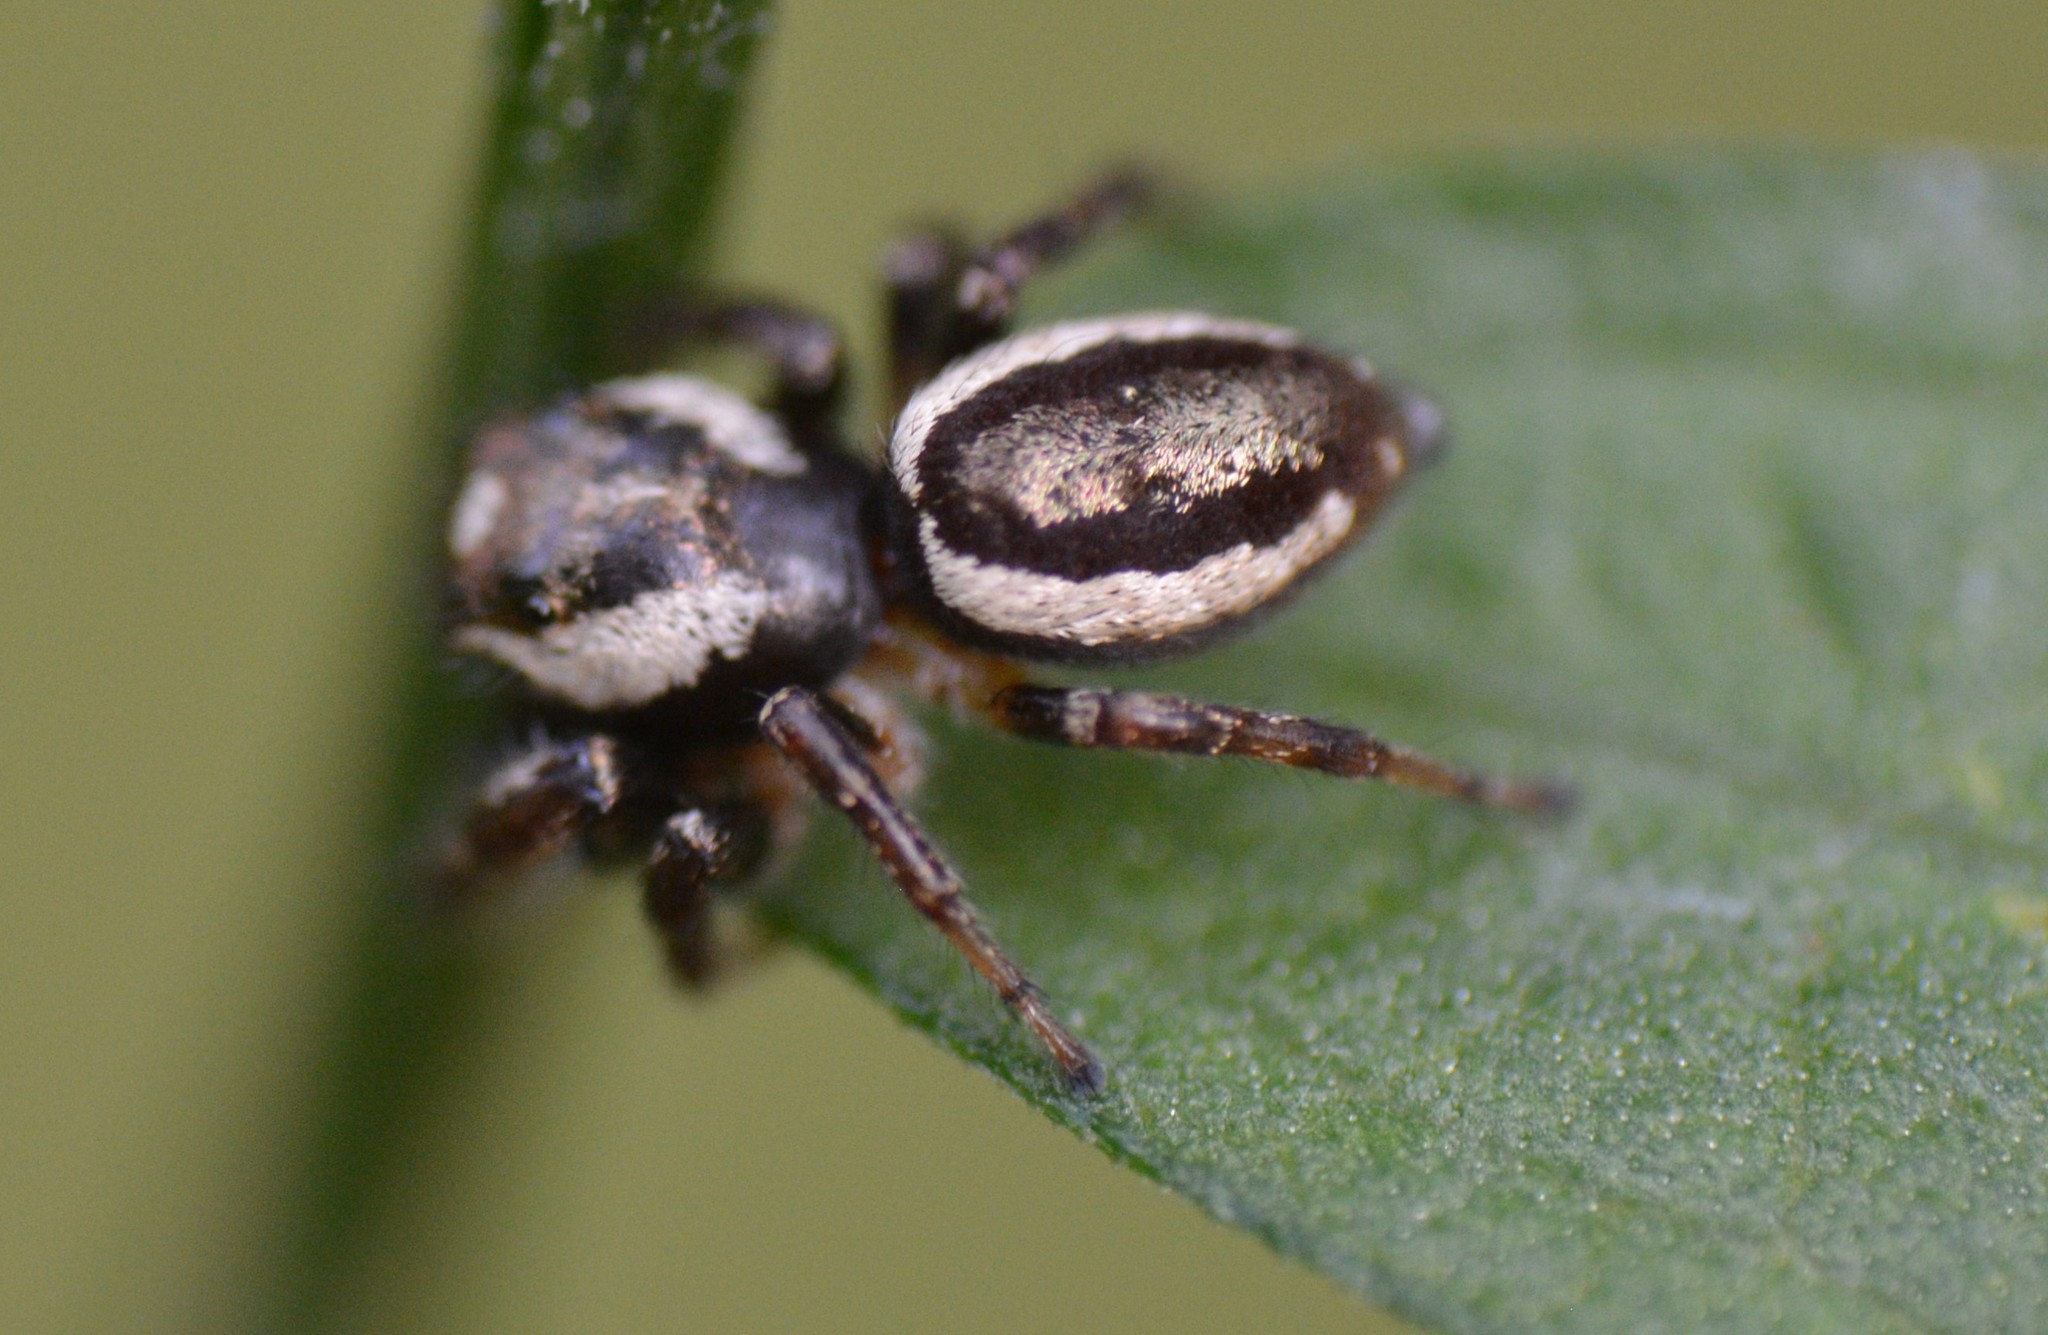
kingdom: Animalia
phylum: Arthropoda
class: Arachnida
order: Araneae
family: Salticidae
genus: Eris
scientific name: Eris militaris
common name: Bronze jumper
